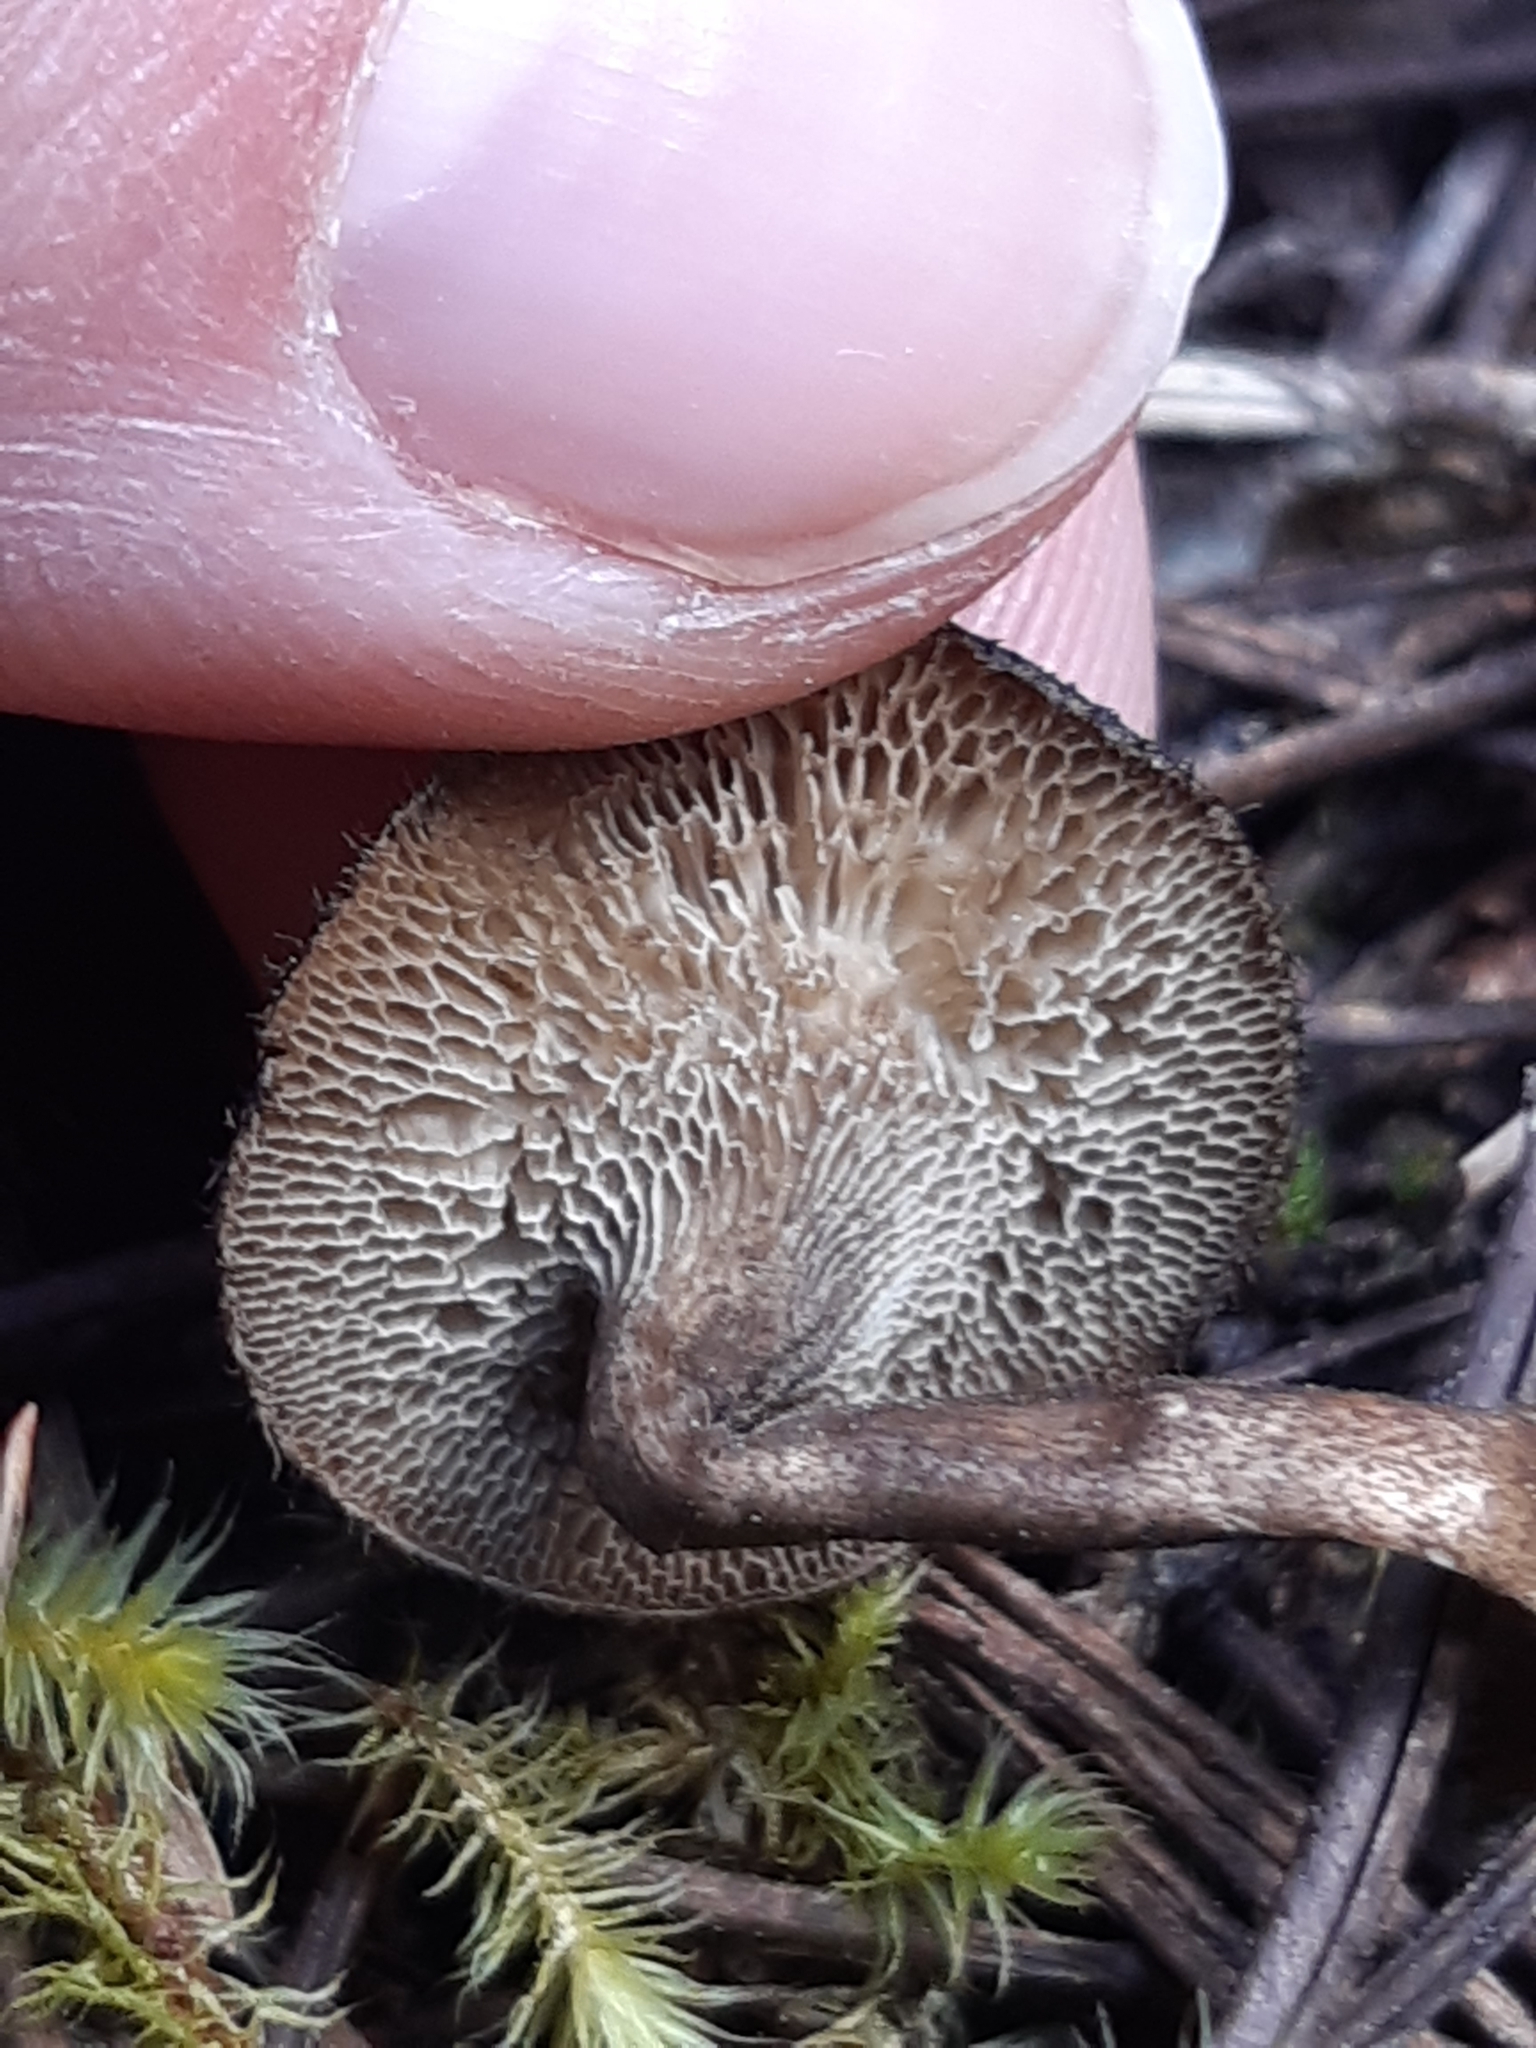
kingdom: Fungi
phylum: Basidiomycota
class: Agaricomycetes
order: Polyporales
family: Polyporaceae
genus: Lentinus
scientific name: Lentinus arcularius
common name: Spring polypore
